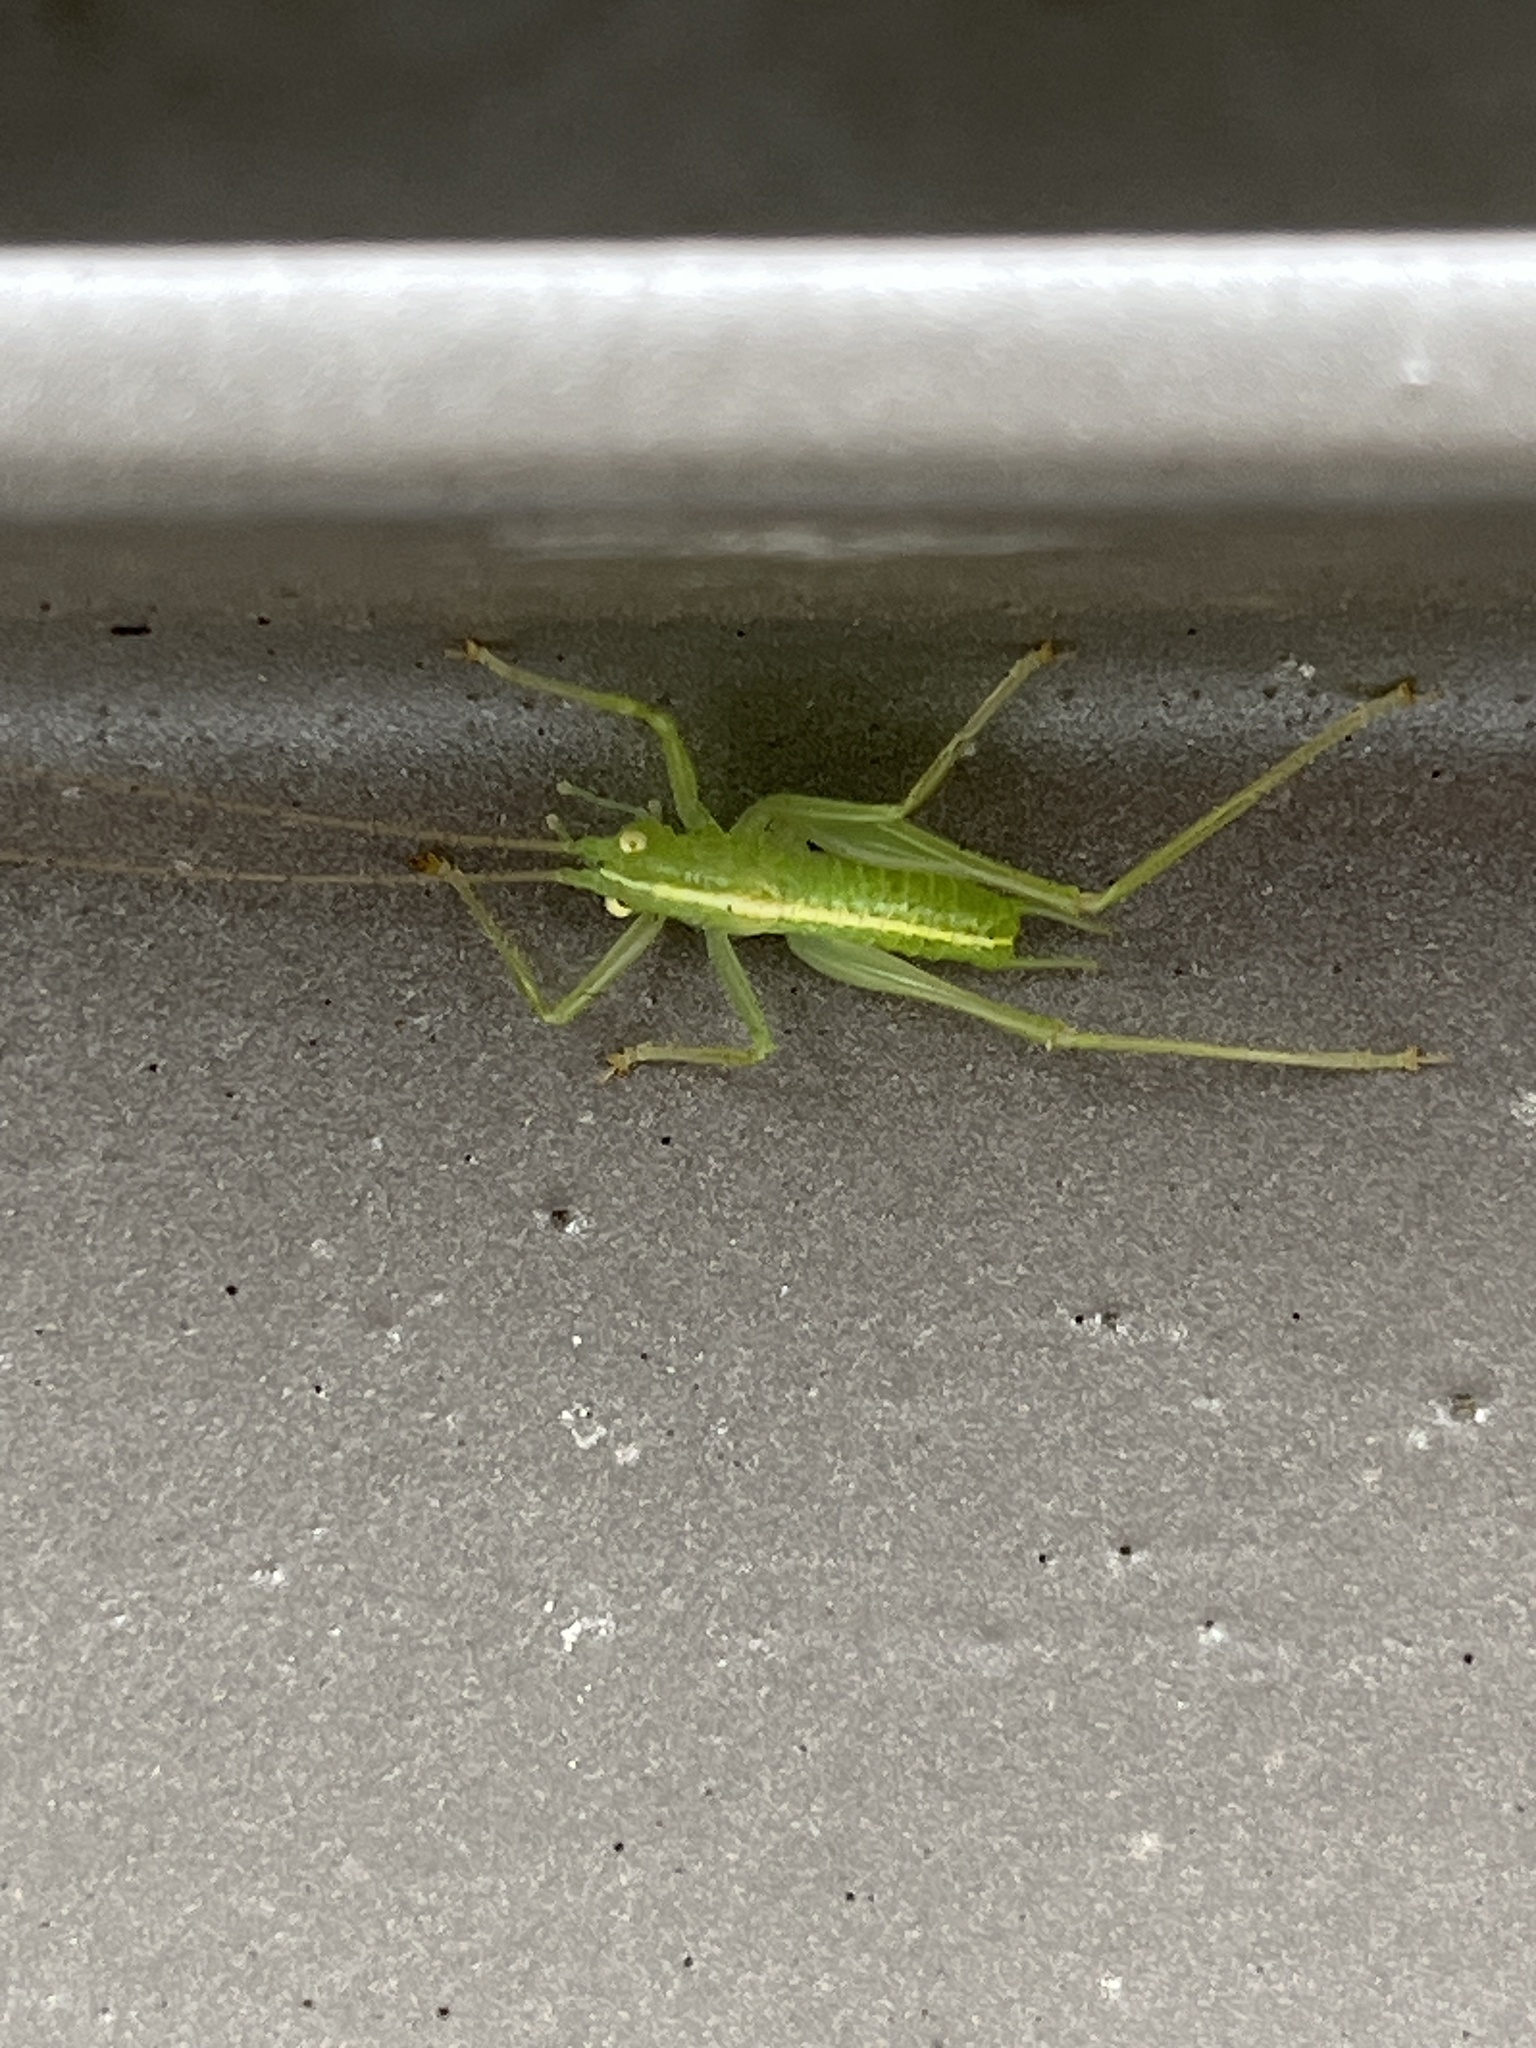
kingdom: Animalia
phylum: Arthropoda
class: Insecta
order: Orthoptera
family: Tettigoniidae
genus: Meconema
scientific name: Meconema meridionale
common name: Southern oak bush-cricket
